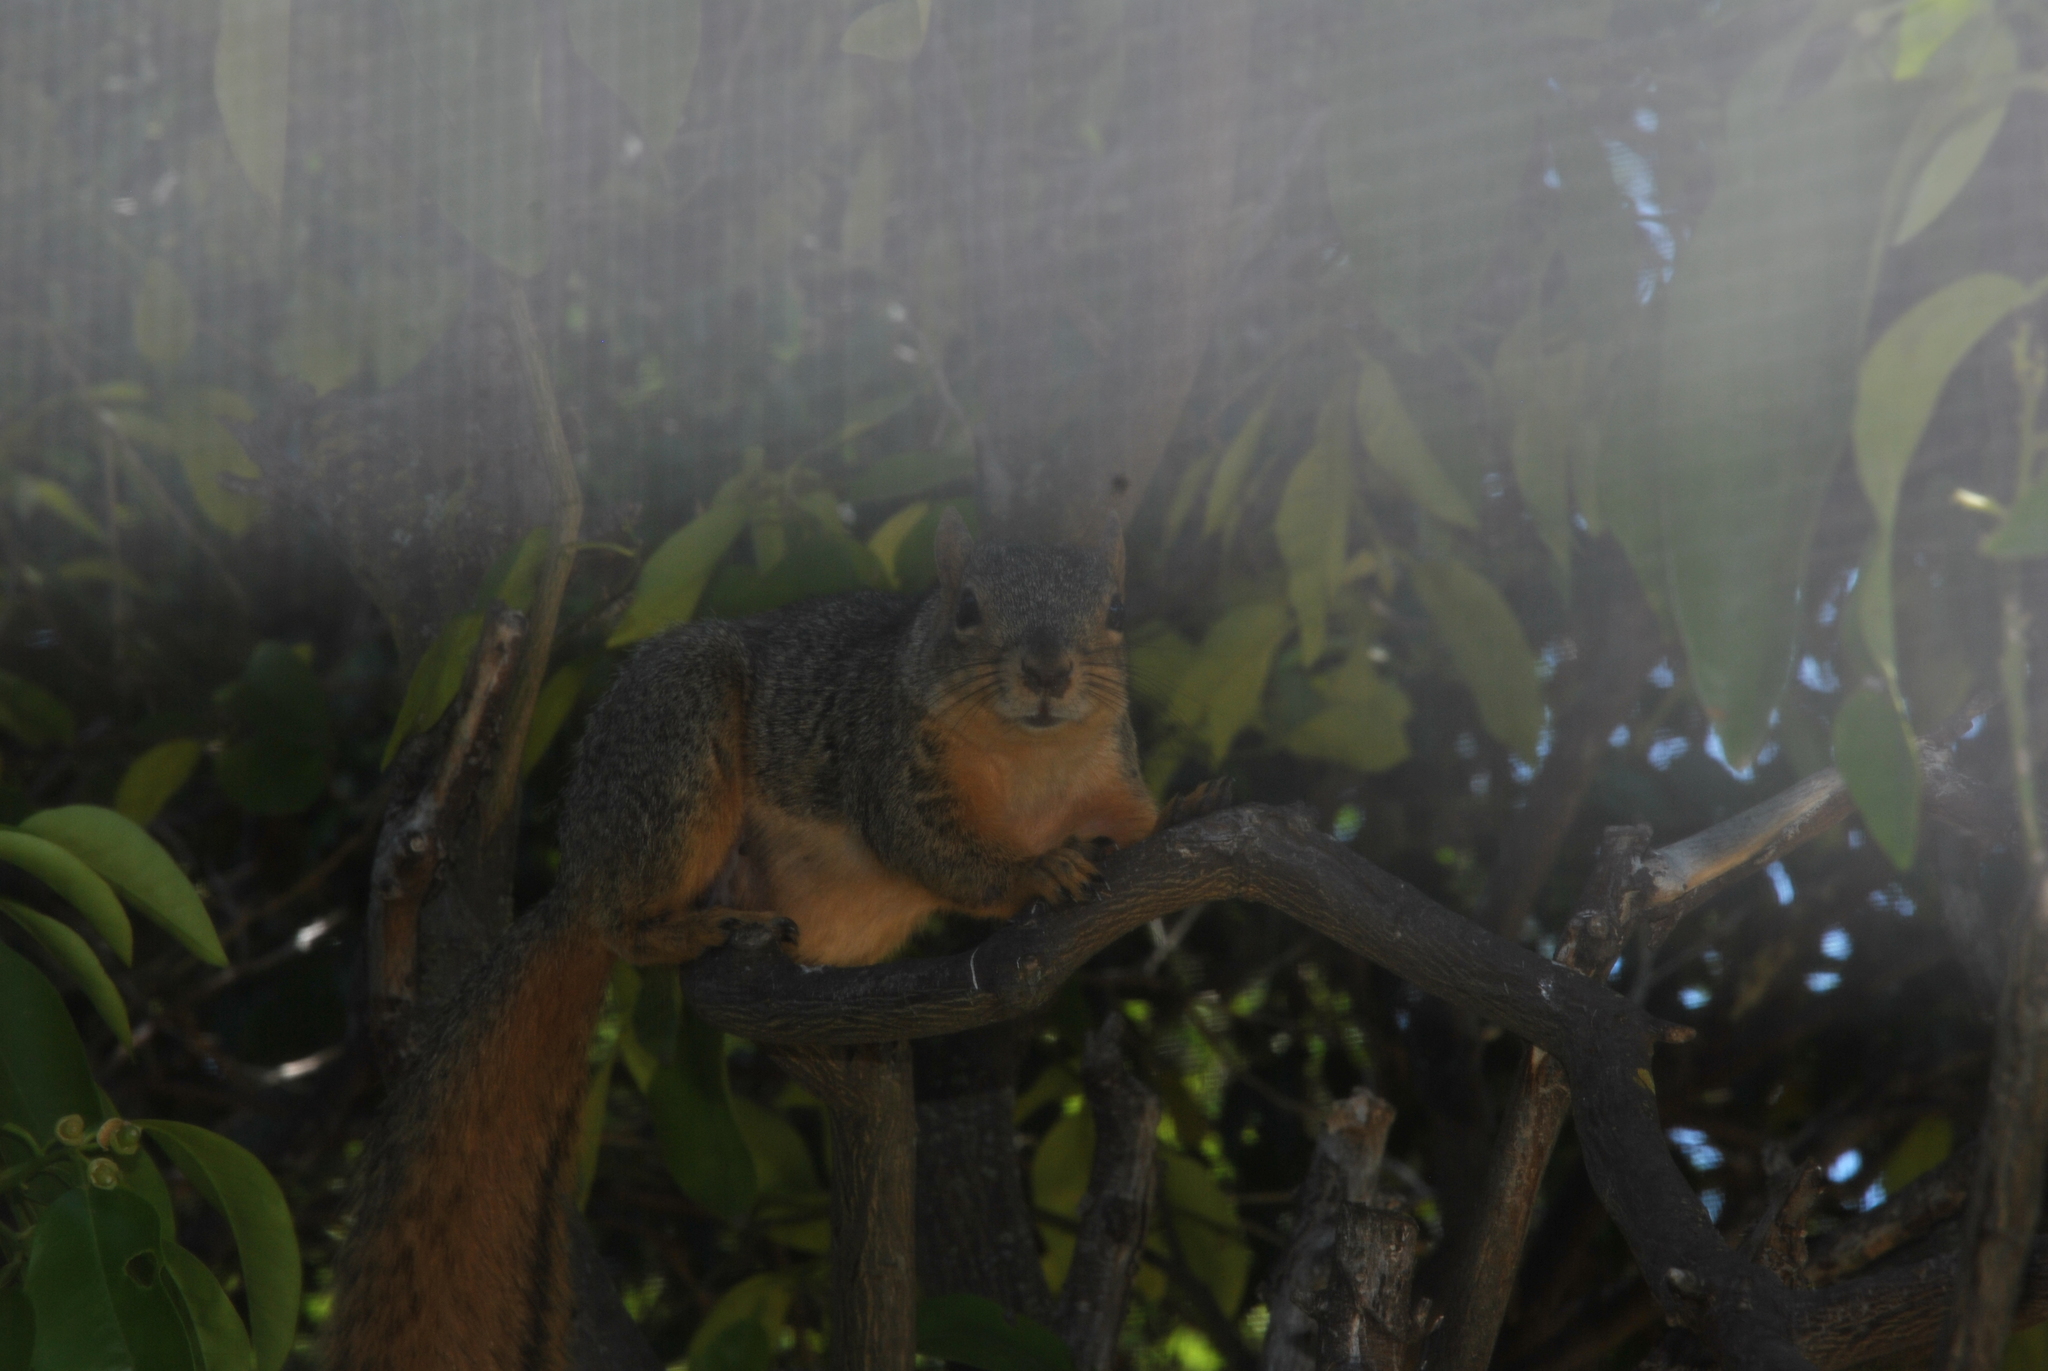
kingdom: Animalia
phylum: Chordata
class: Mammalia
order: Rodentia
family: Sciuridae
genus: Sciurus
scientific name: Sciurus niger
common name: Fox squirrel
